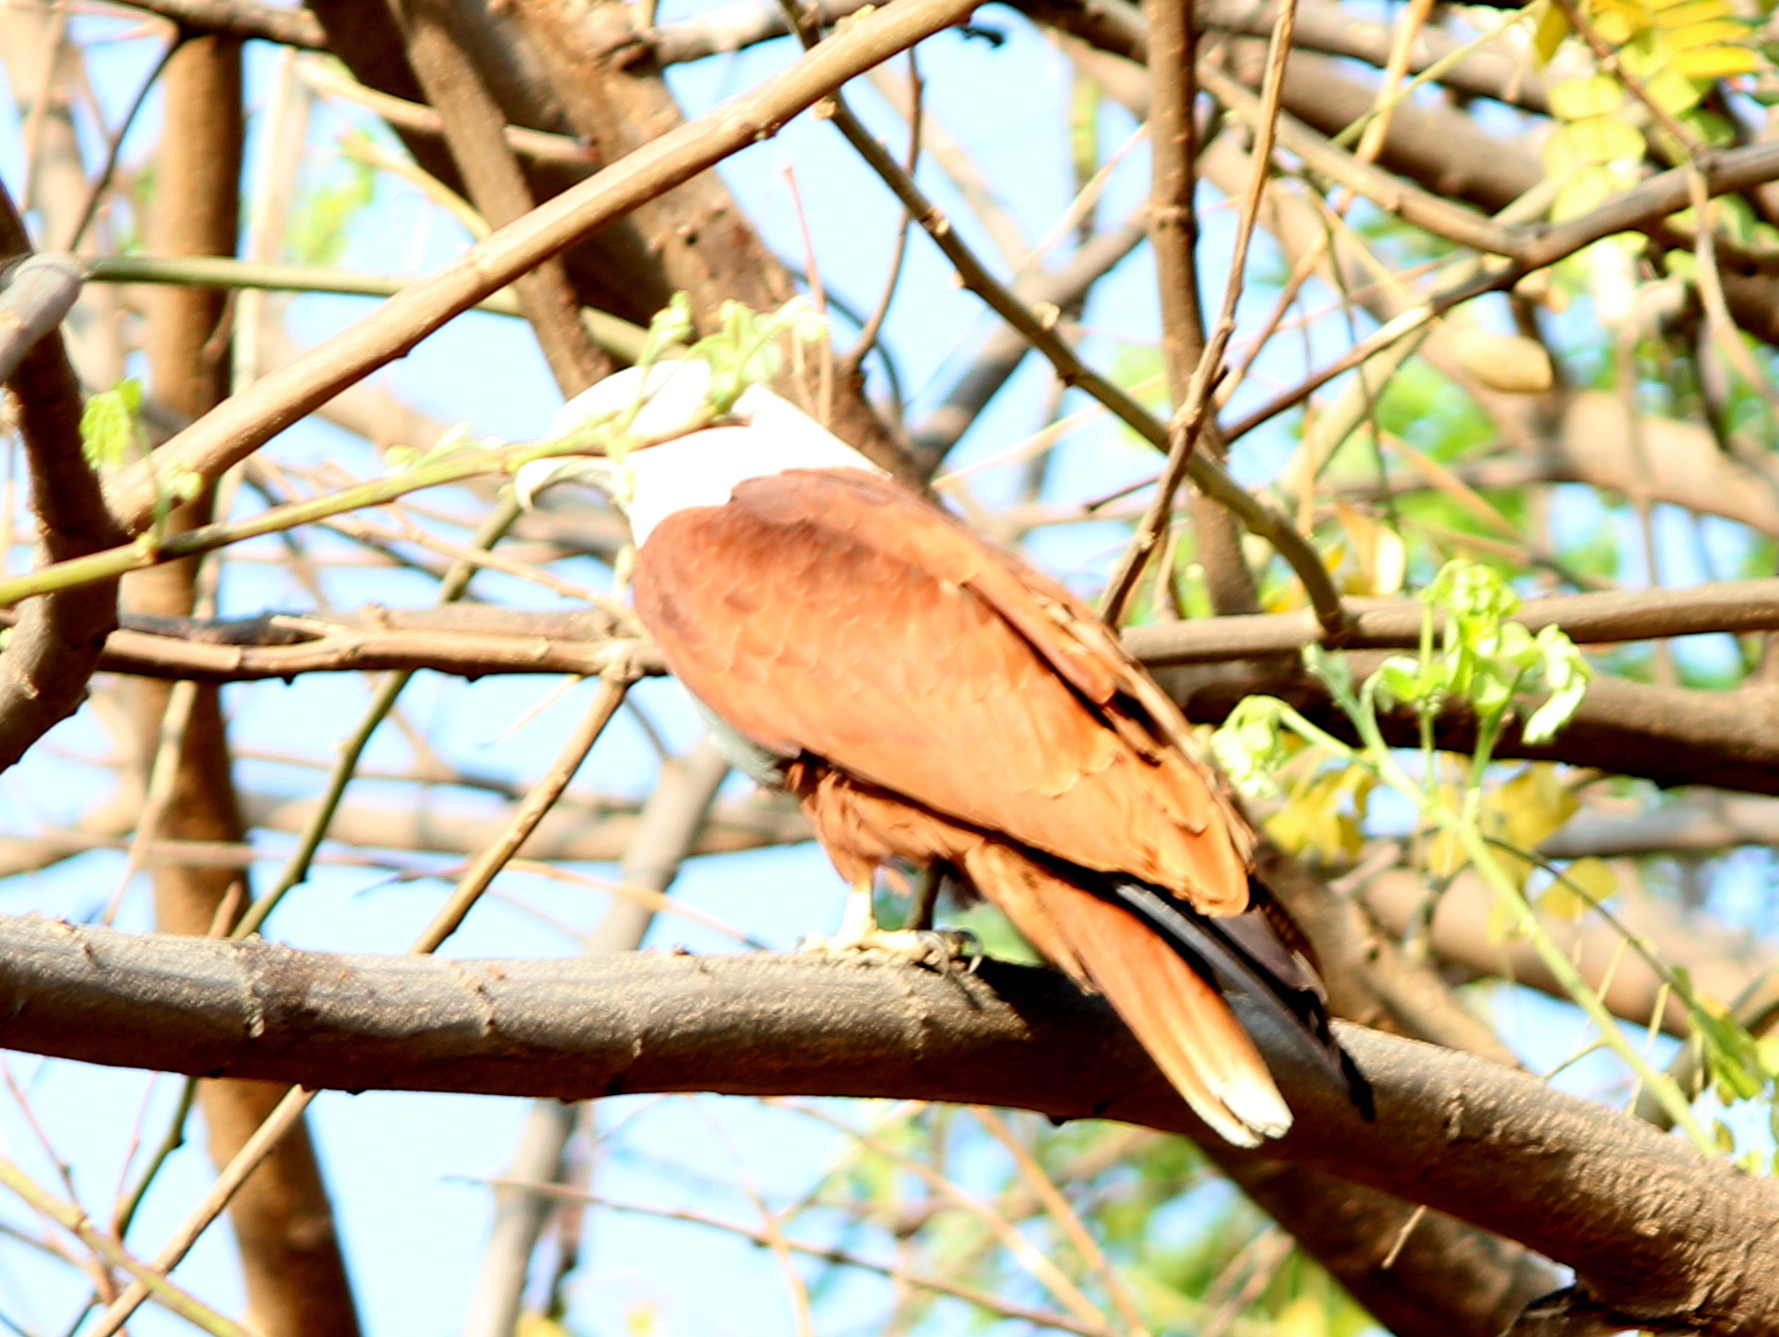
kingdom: Animalia
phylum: Chordata
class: Aves
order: Accipitriformes
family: Accipitridae
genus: Haliastur
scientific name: Haliastur indus
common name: Brahminy kite
